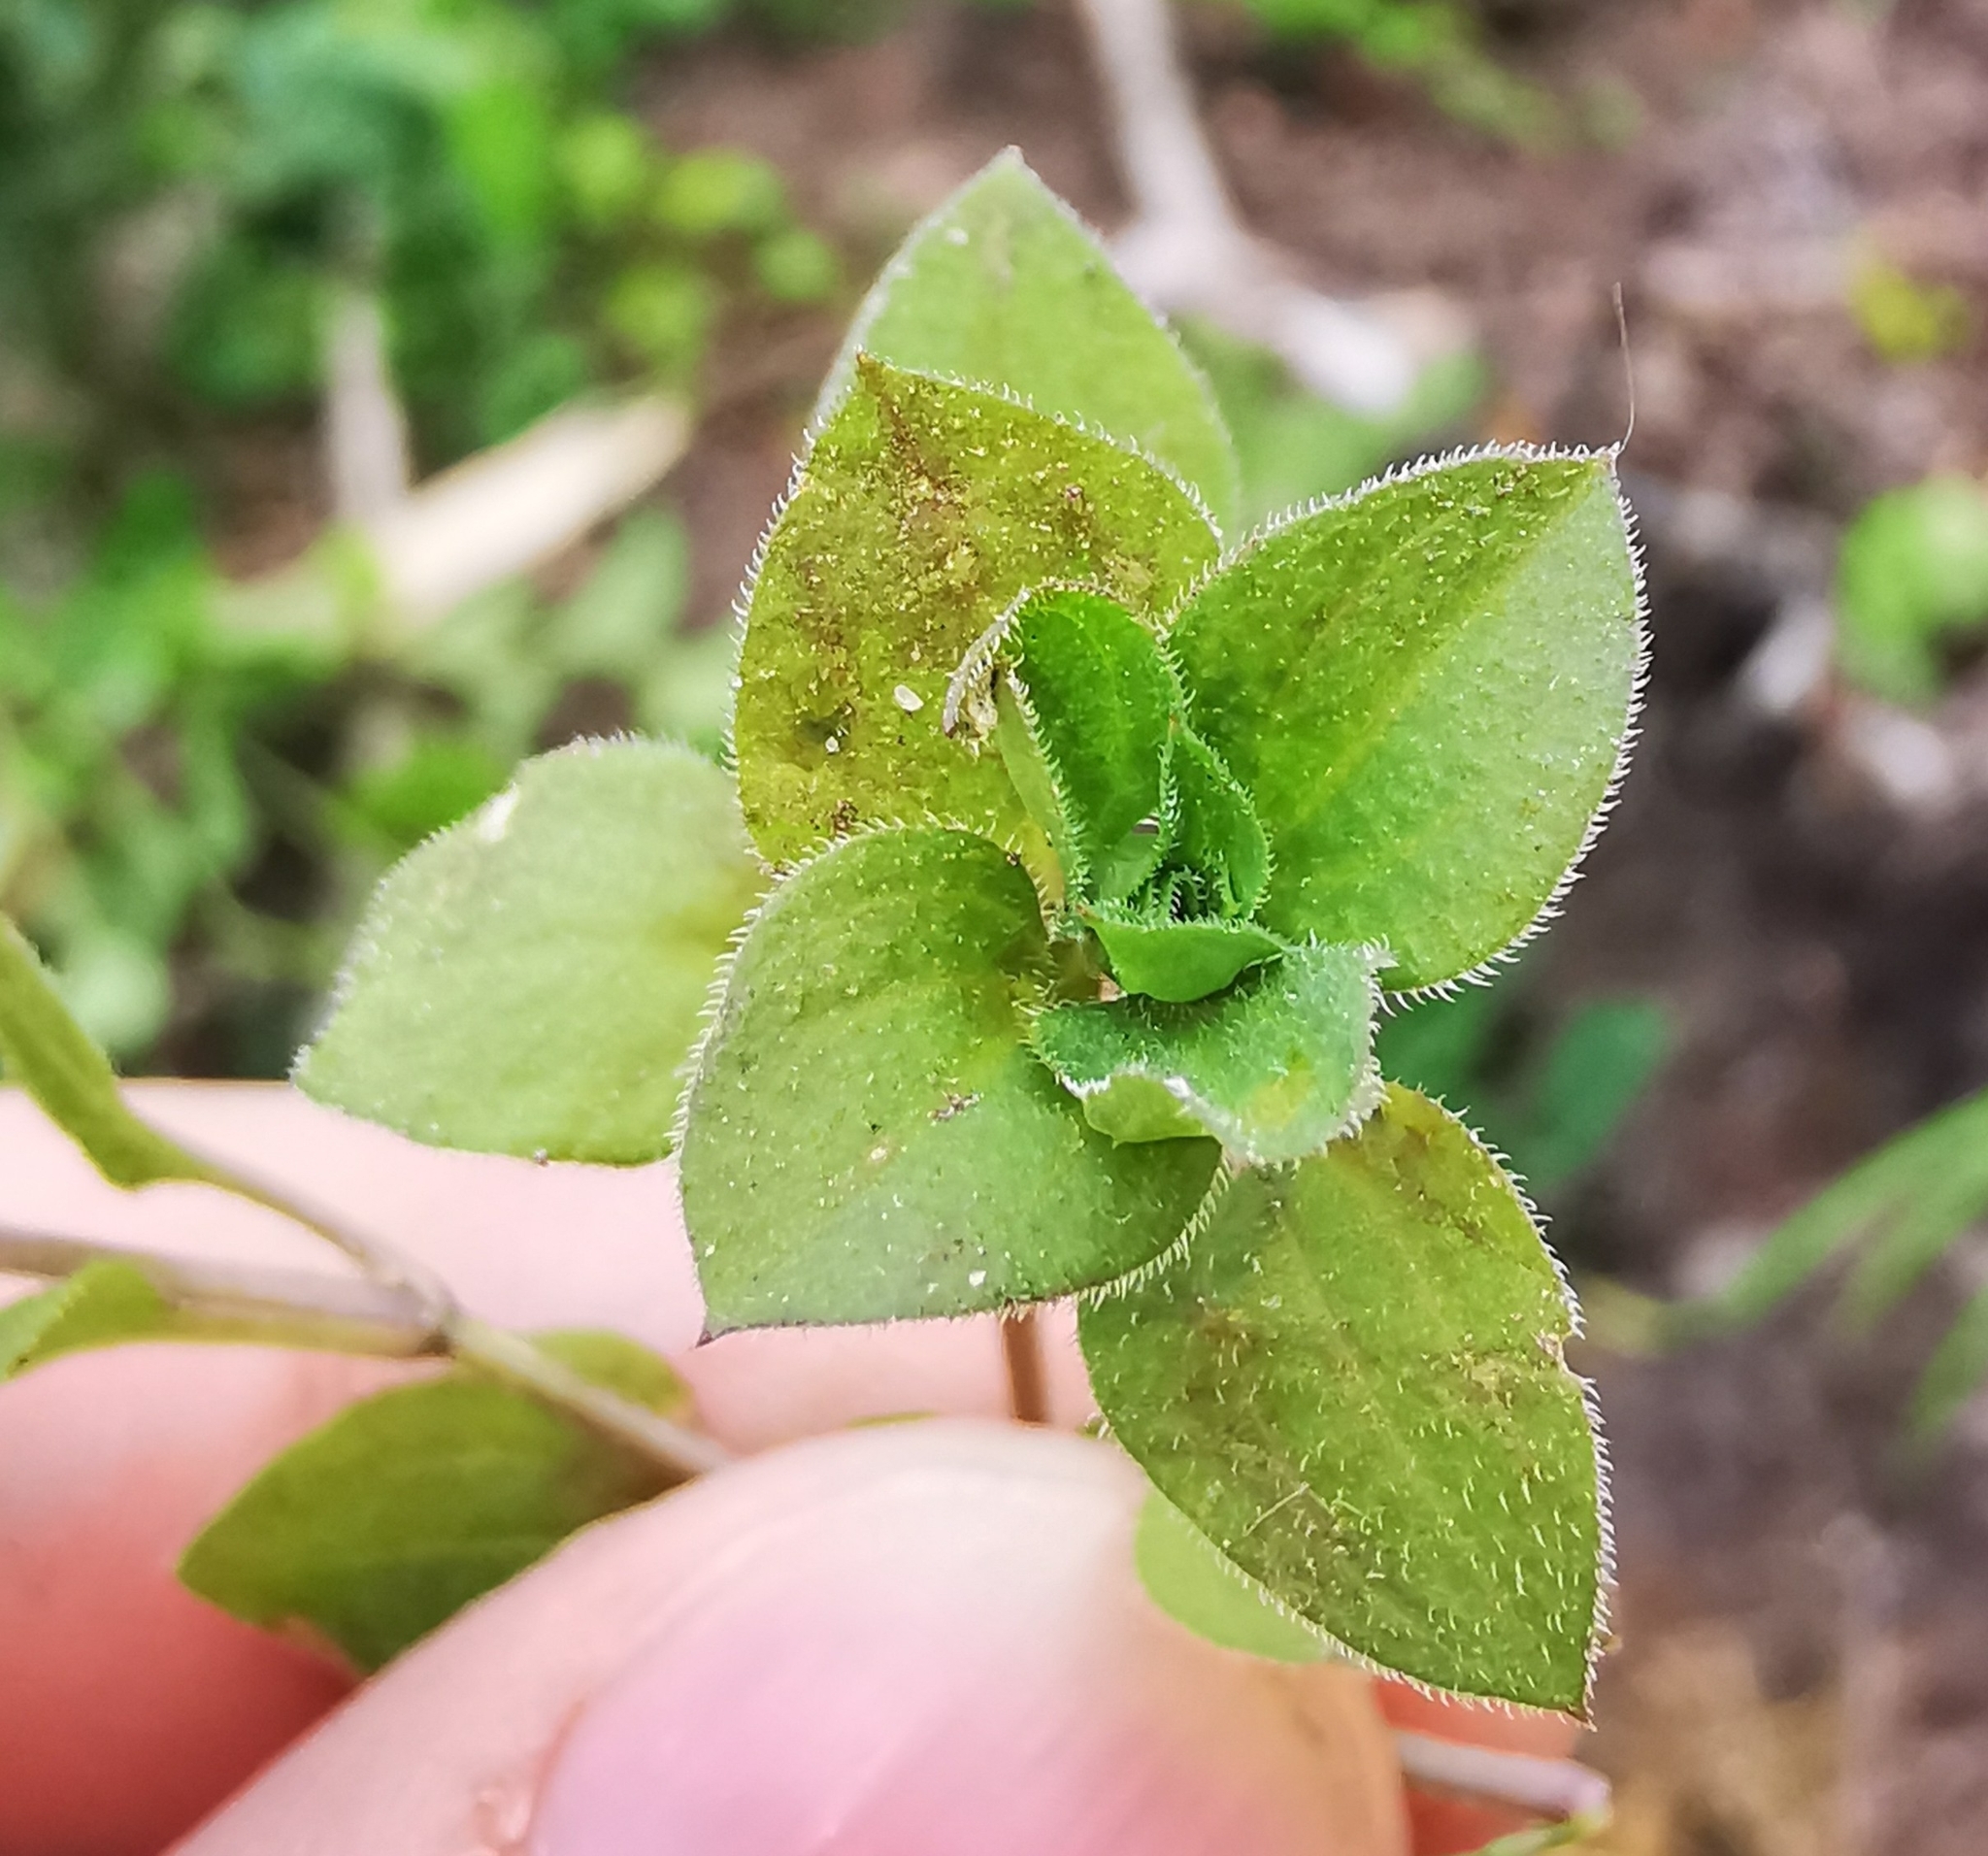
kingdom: Plantae
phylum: Tracheophyta
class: Magnoliopsida
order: Caryophyllales
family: Caryophyllaceae
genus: Moehringia
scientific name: Moehringia trinervia
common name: Three-nerved sandwort
